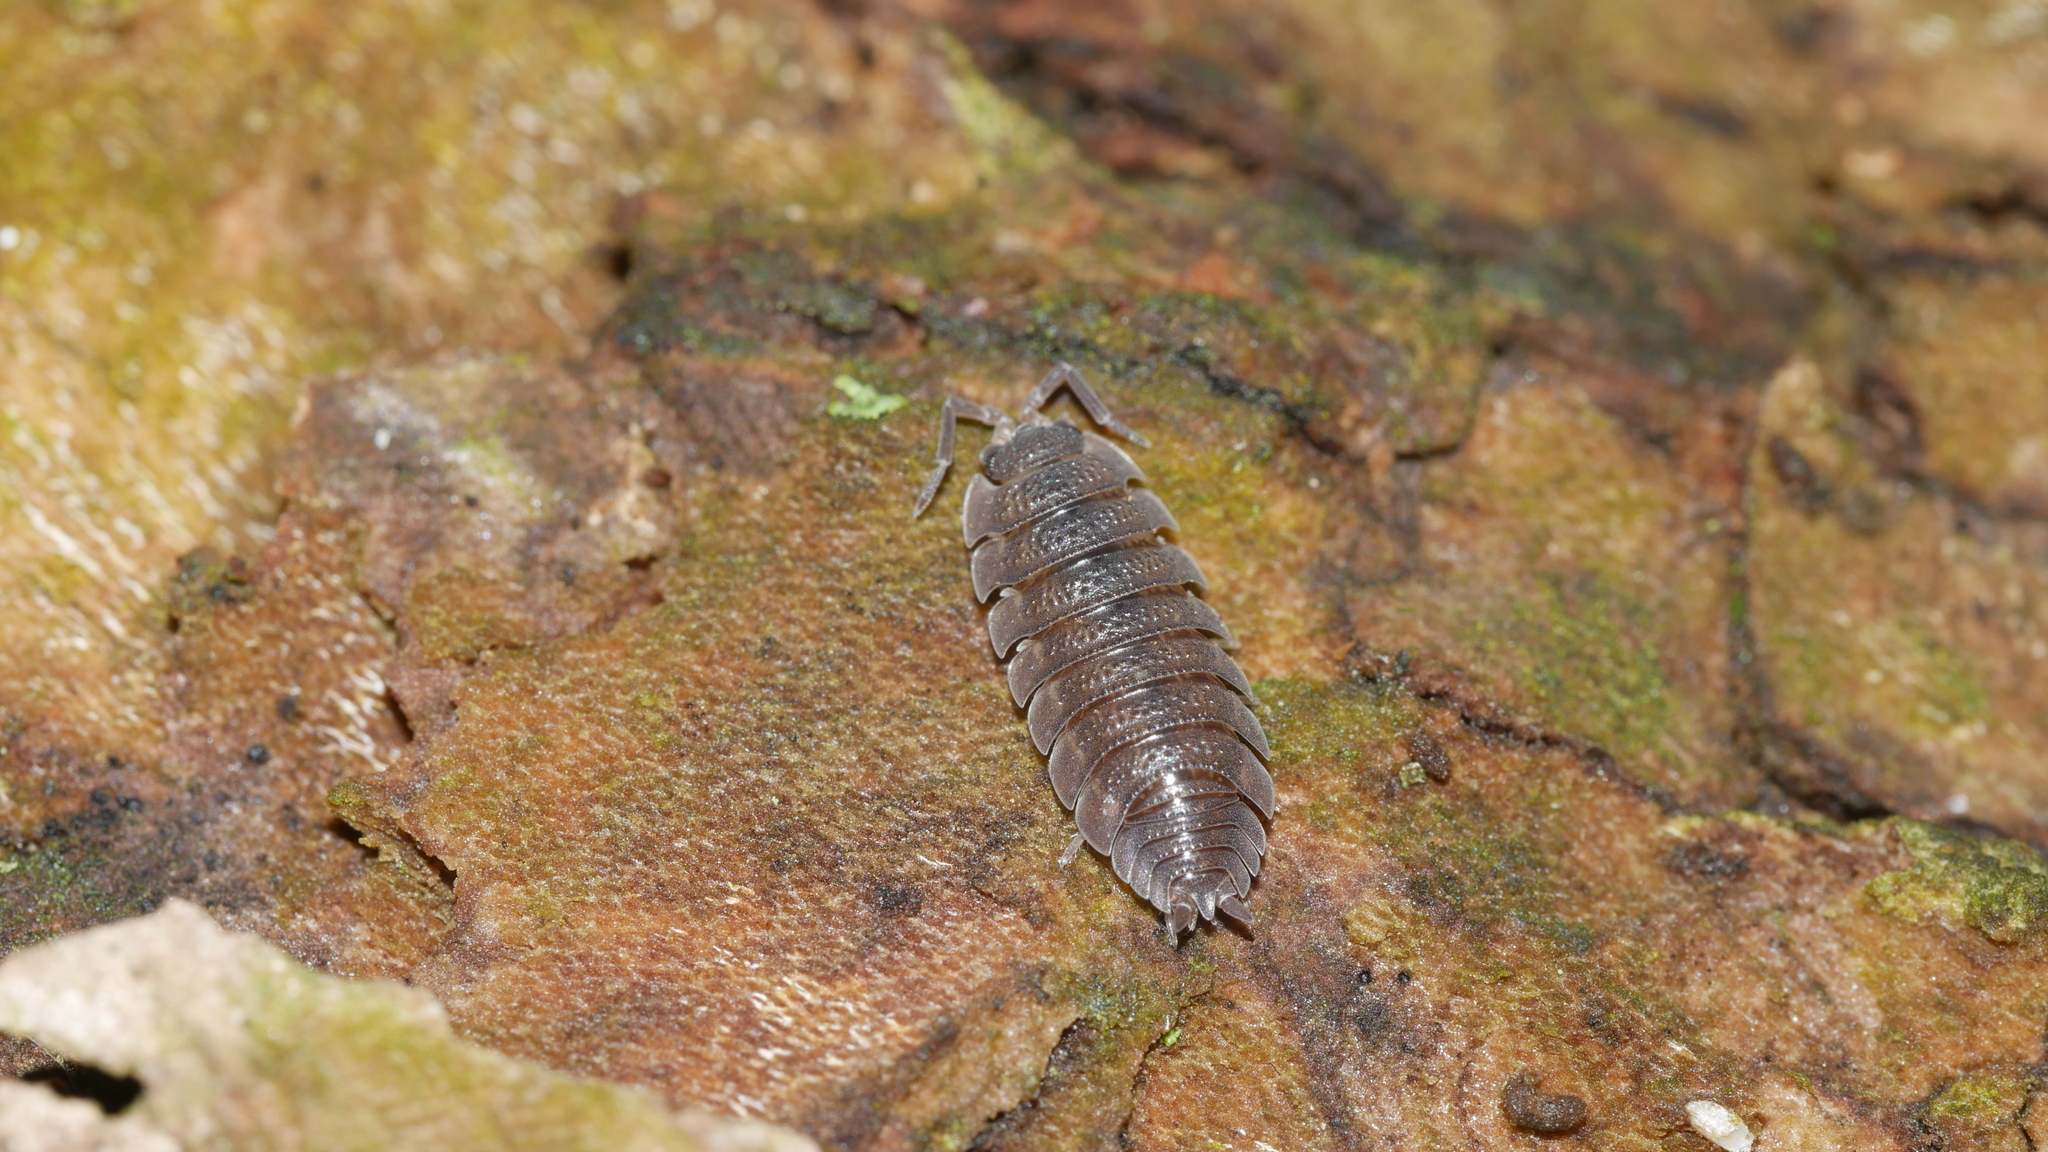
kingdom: Animalia
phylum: Arthropoda
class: Malacostraca
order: Isopoda
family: Porcellionidae
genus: Porcellio
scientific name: Porcellio scaber
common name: Common rough woodlouse
